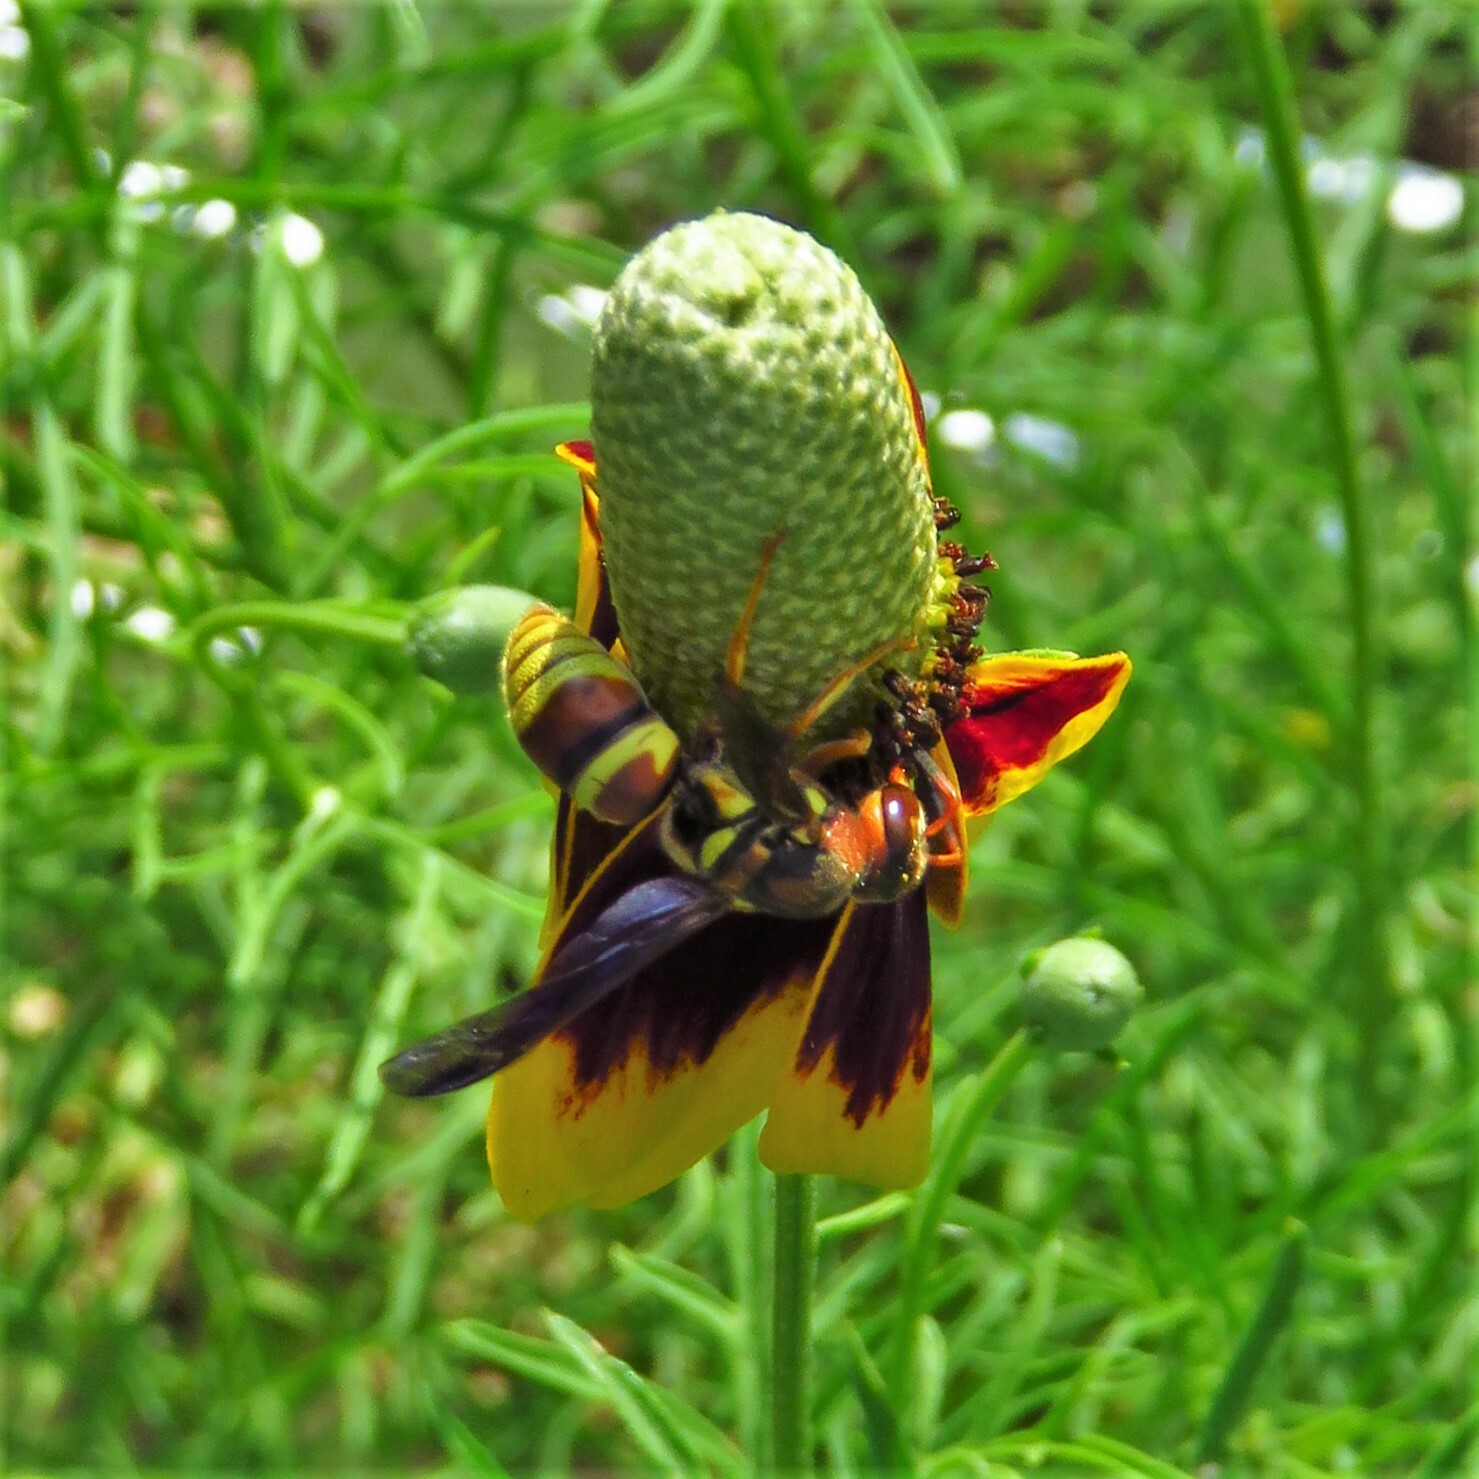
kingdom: Animalia
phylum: Arthropoda
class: Insecta
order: Hymenoptera
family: Eumenidae
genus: Euodynerus
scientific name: Euodynerus pratensis
